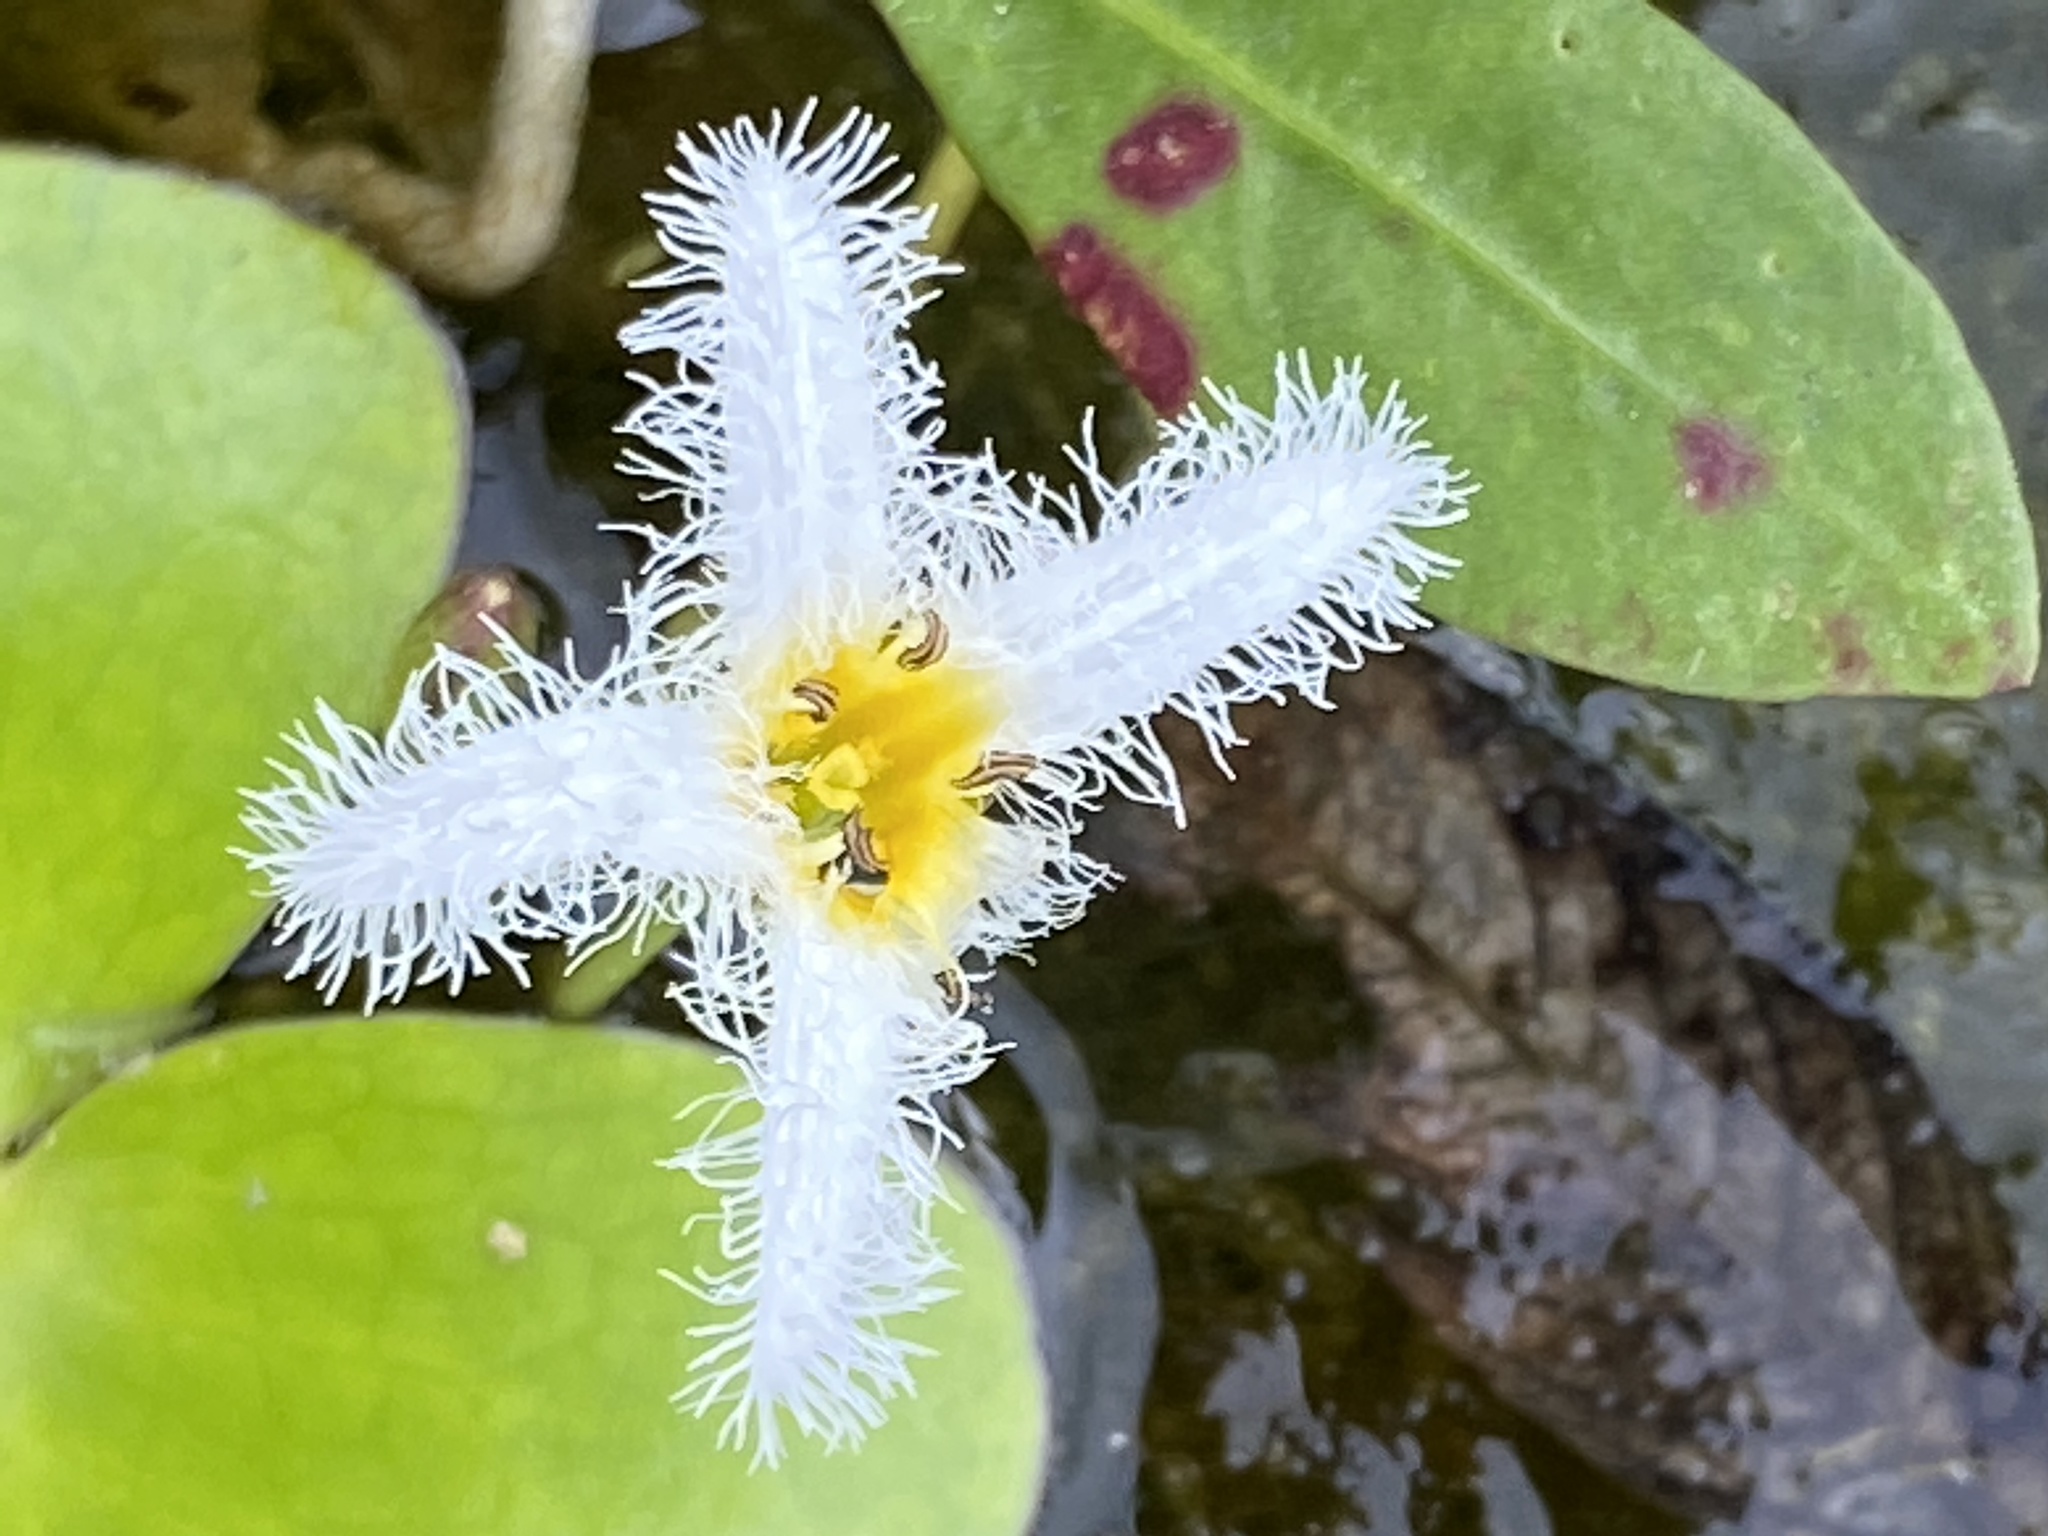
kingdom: Plantae
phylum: Tracheophyta
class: Magnoliopsida
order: Asterales
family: Menyanthaceae
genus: Nymphoides
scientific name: Nymphoides humboldtiana
